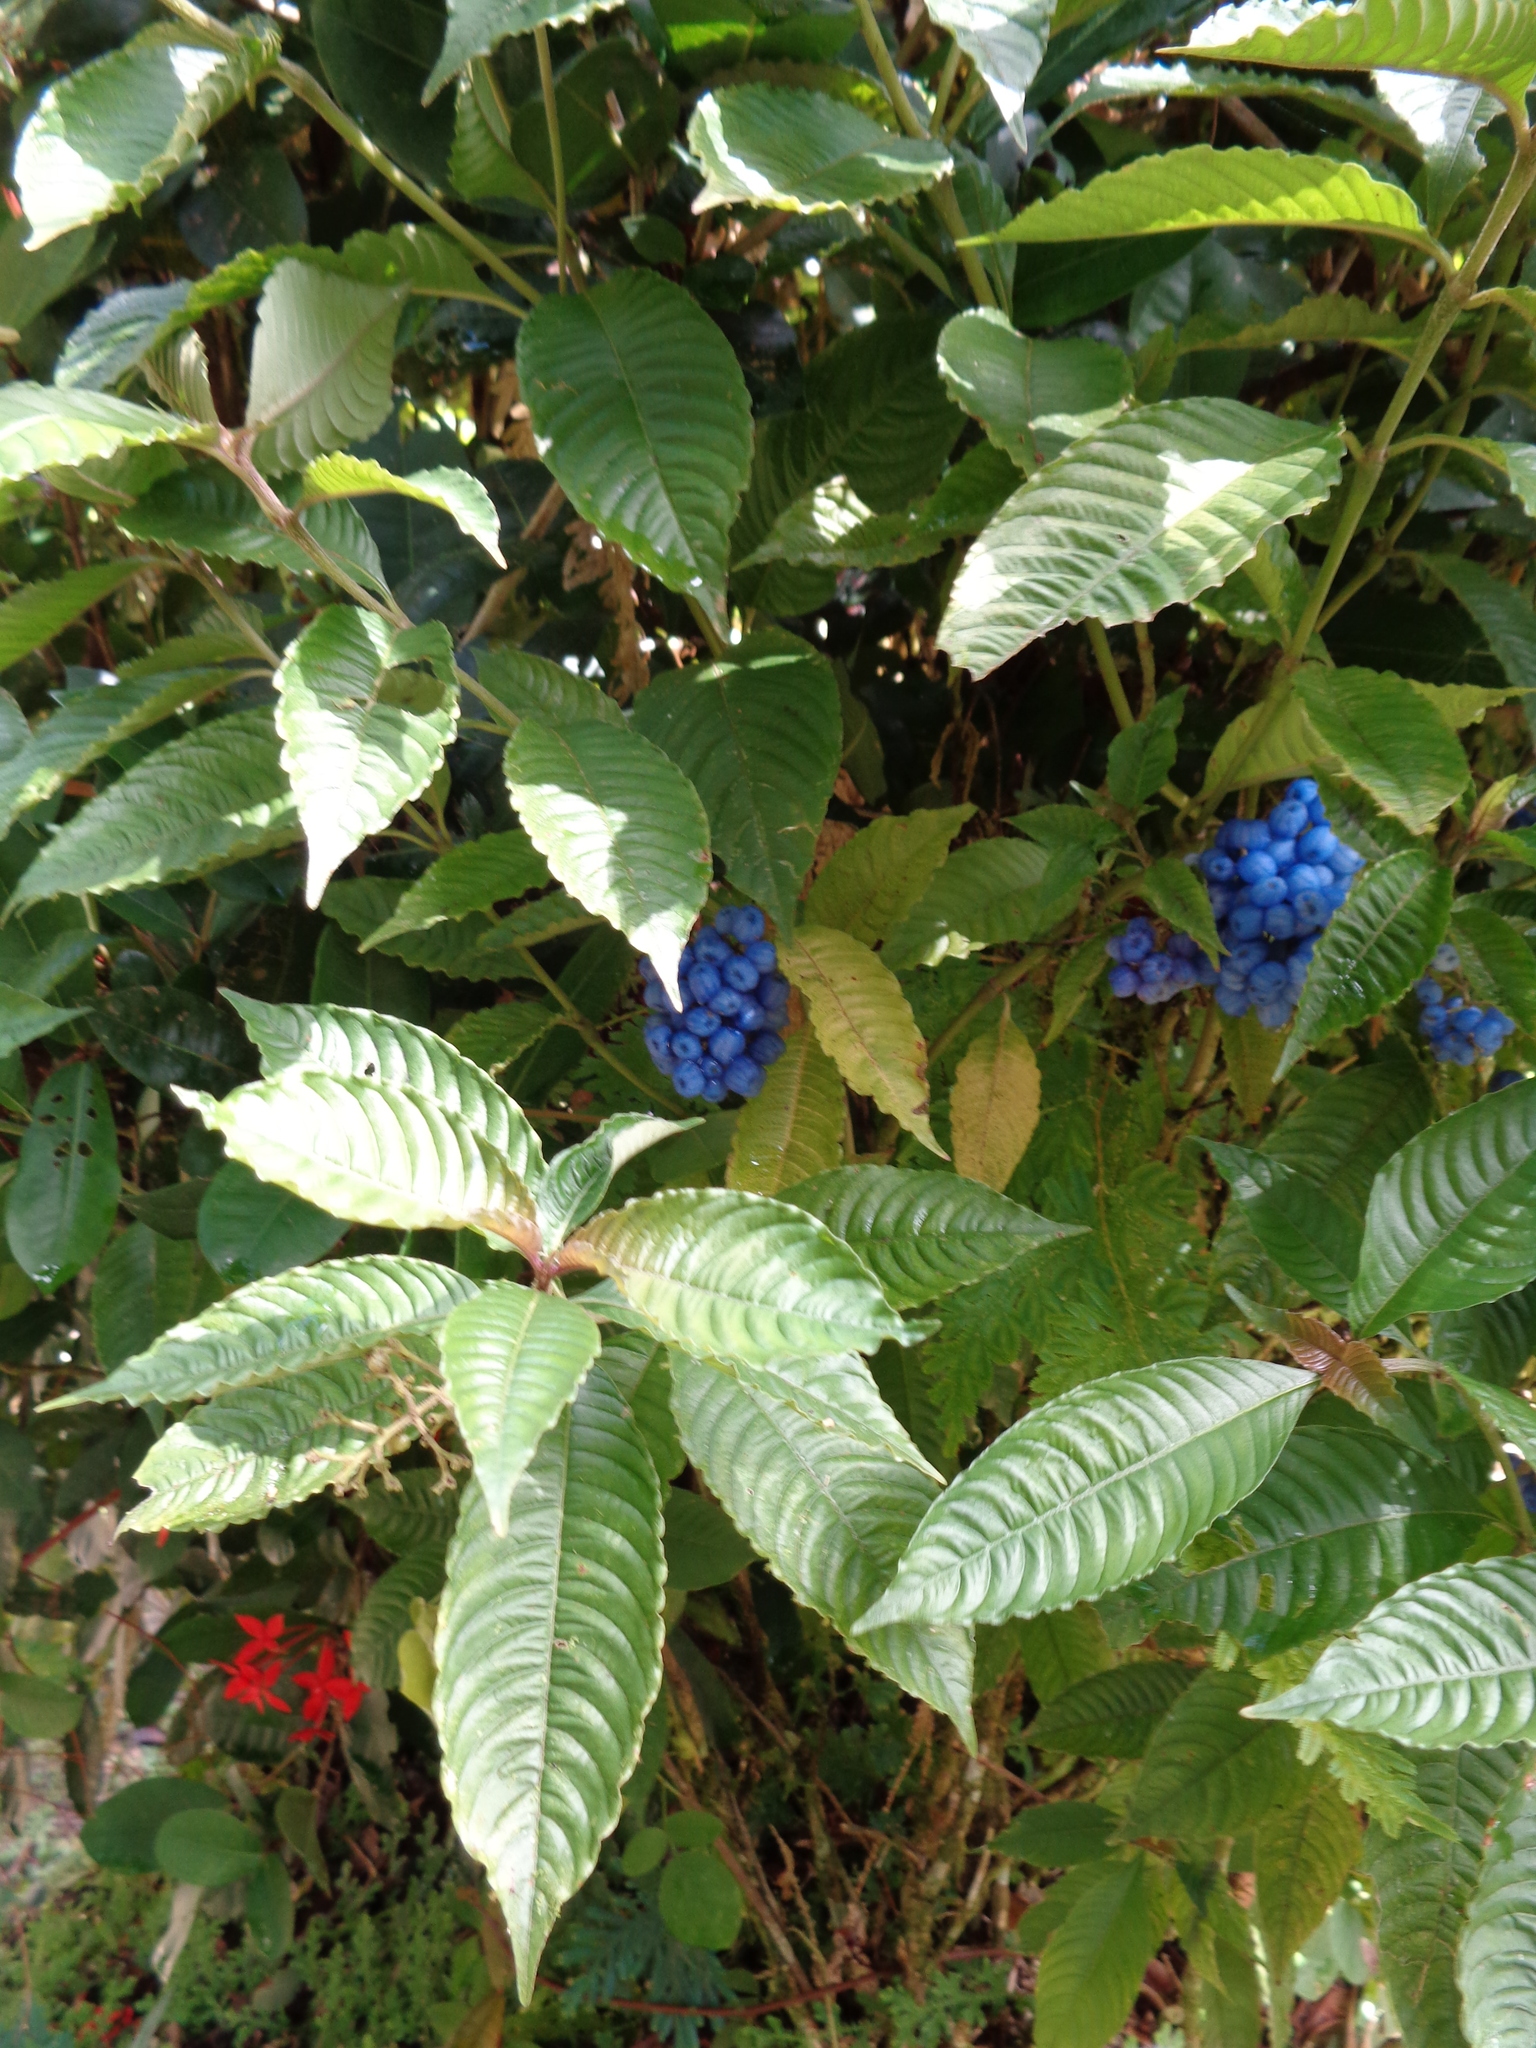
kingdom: Plantae
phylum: Tracheophyta
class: Magnoliopsida
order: Gentianales
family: Rubiaceae
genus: Palicourea
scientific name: Palicourea cyanococca
